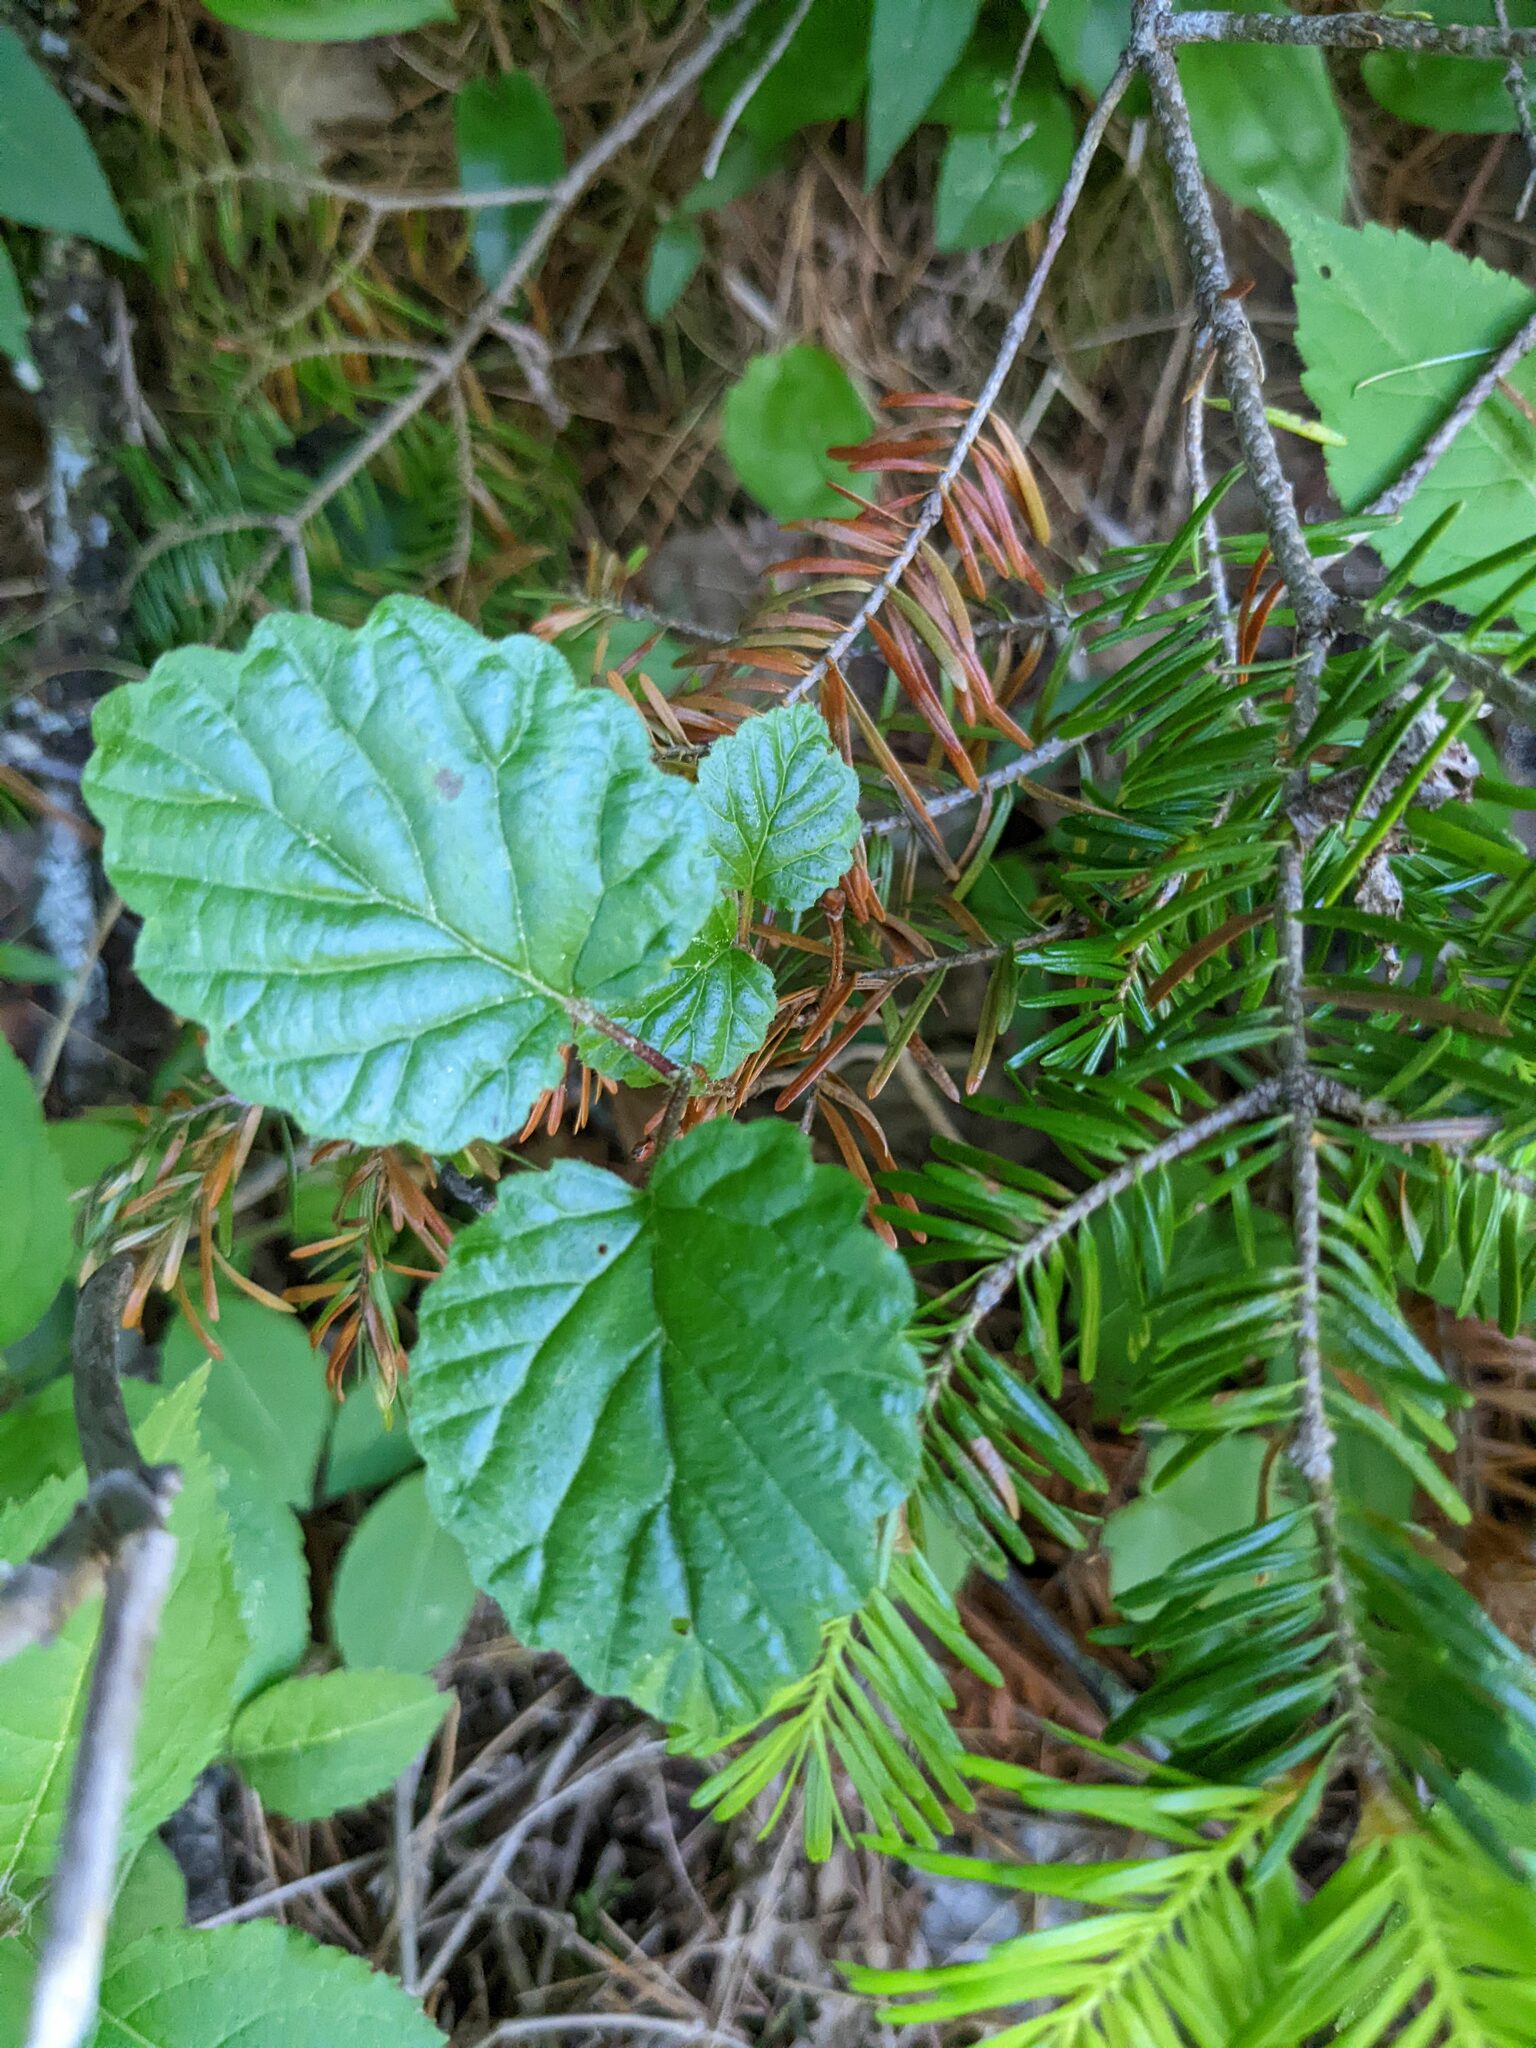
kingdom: Plantae
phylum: Tracheophyta
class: Pinopsida
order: Pinales
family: Pinaceae
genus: Abies
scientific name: Abies balsamea
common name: Balsam fir
